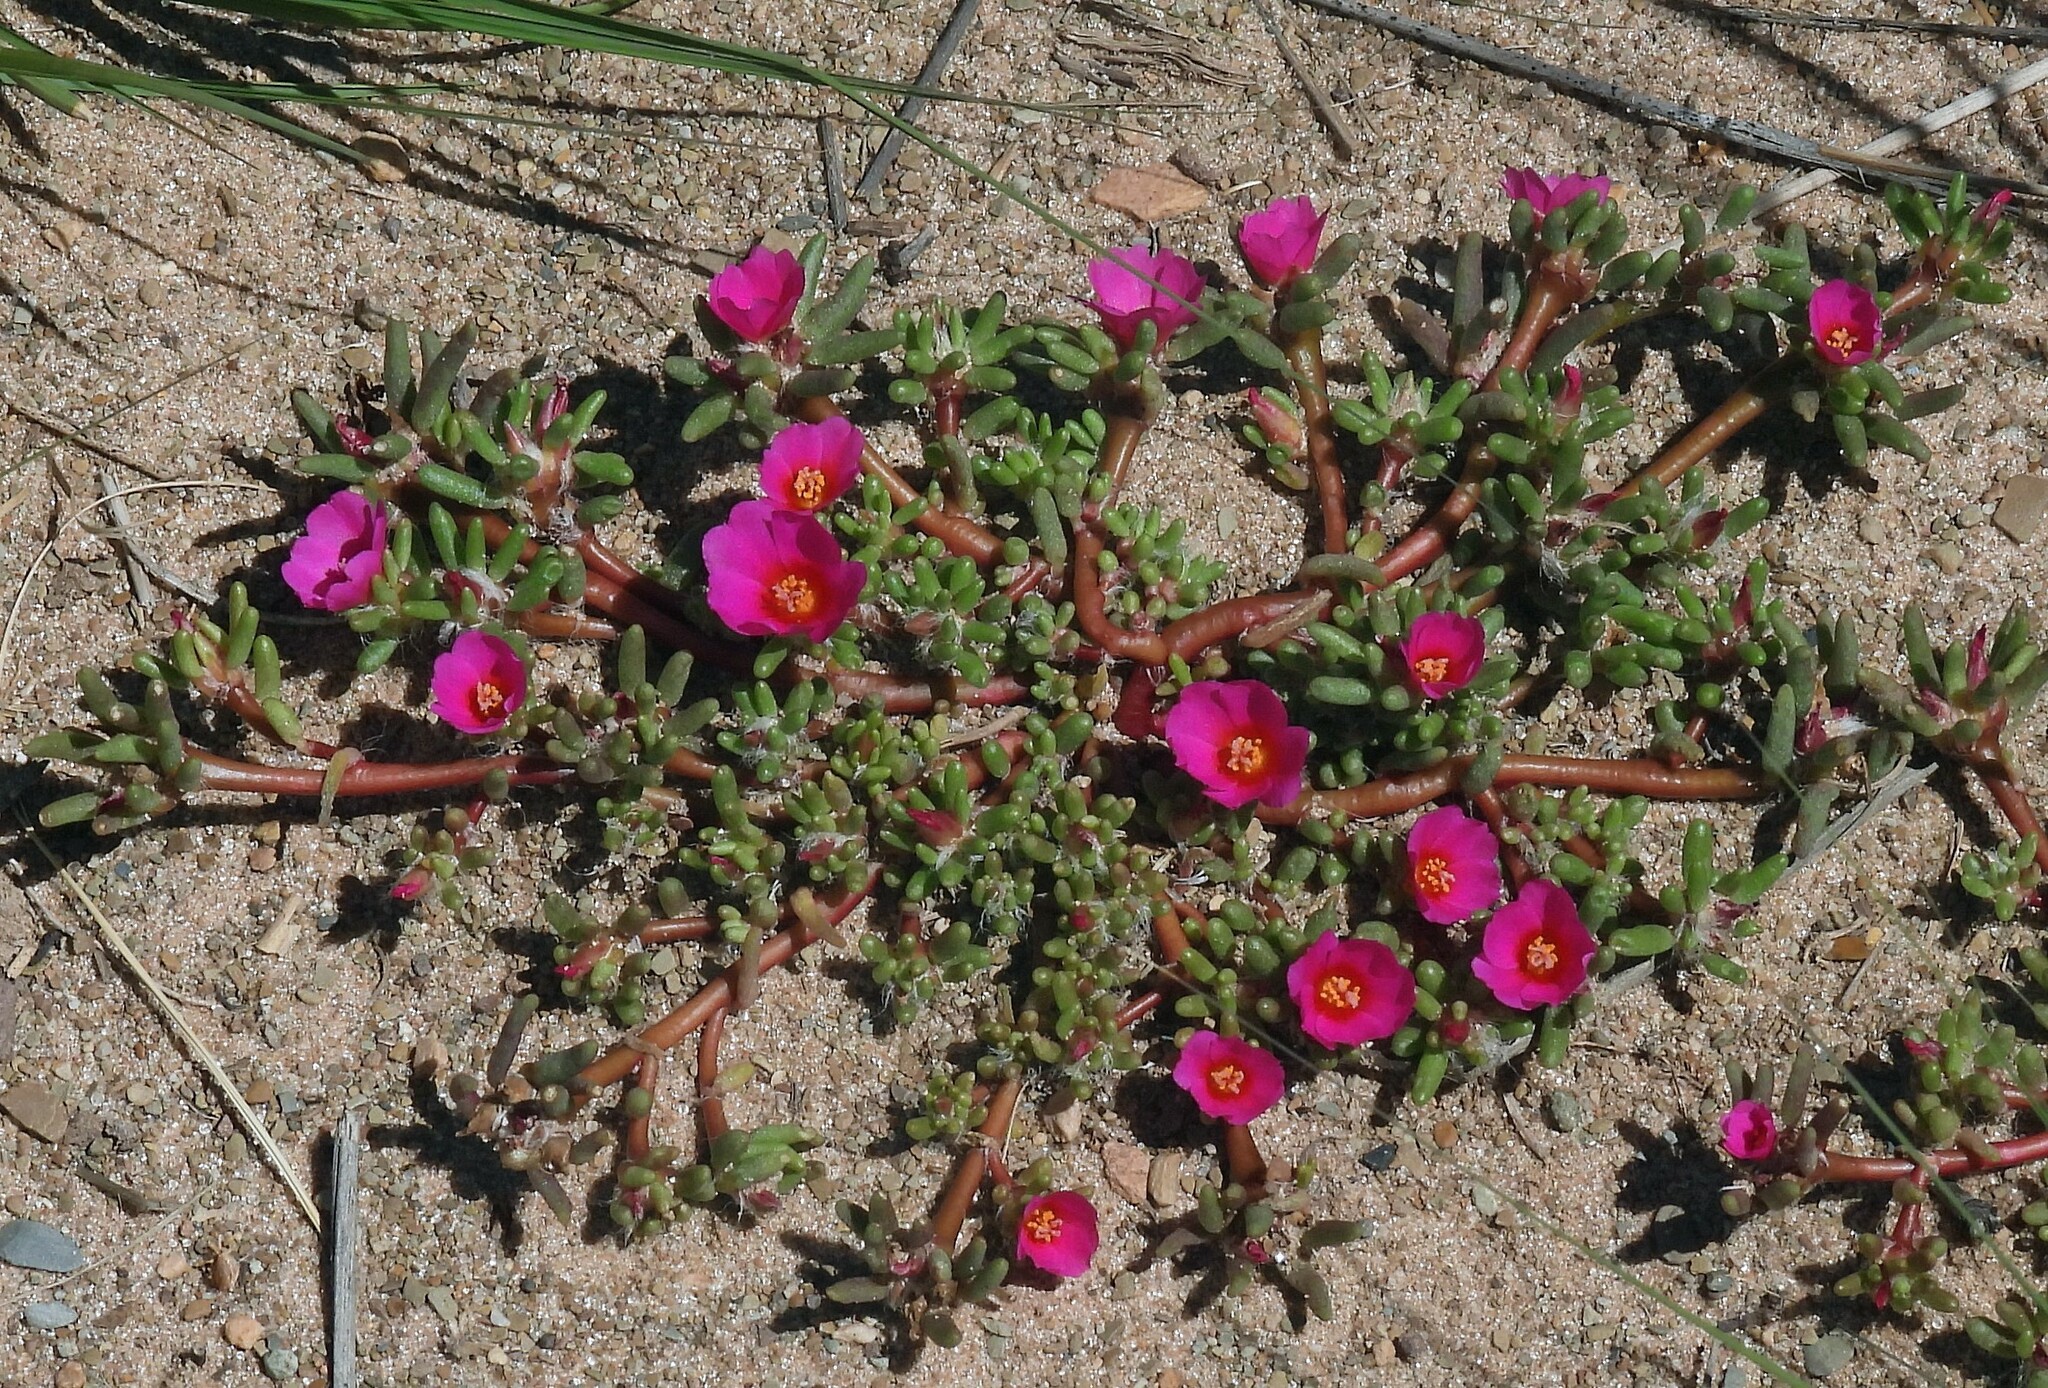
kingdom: Plantae
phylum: Tracheophyta
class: Magnoliopsida
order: Caryophyllales
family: Portulacaceae
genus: Portulaca
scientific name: Portulaca pilosa
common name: Kiss me quick
